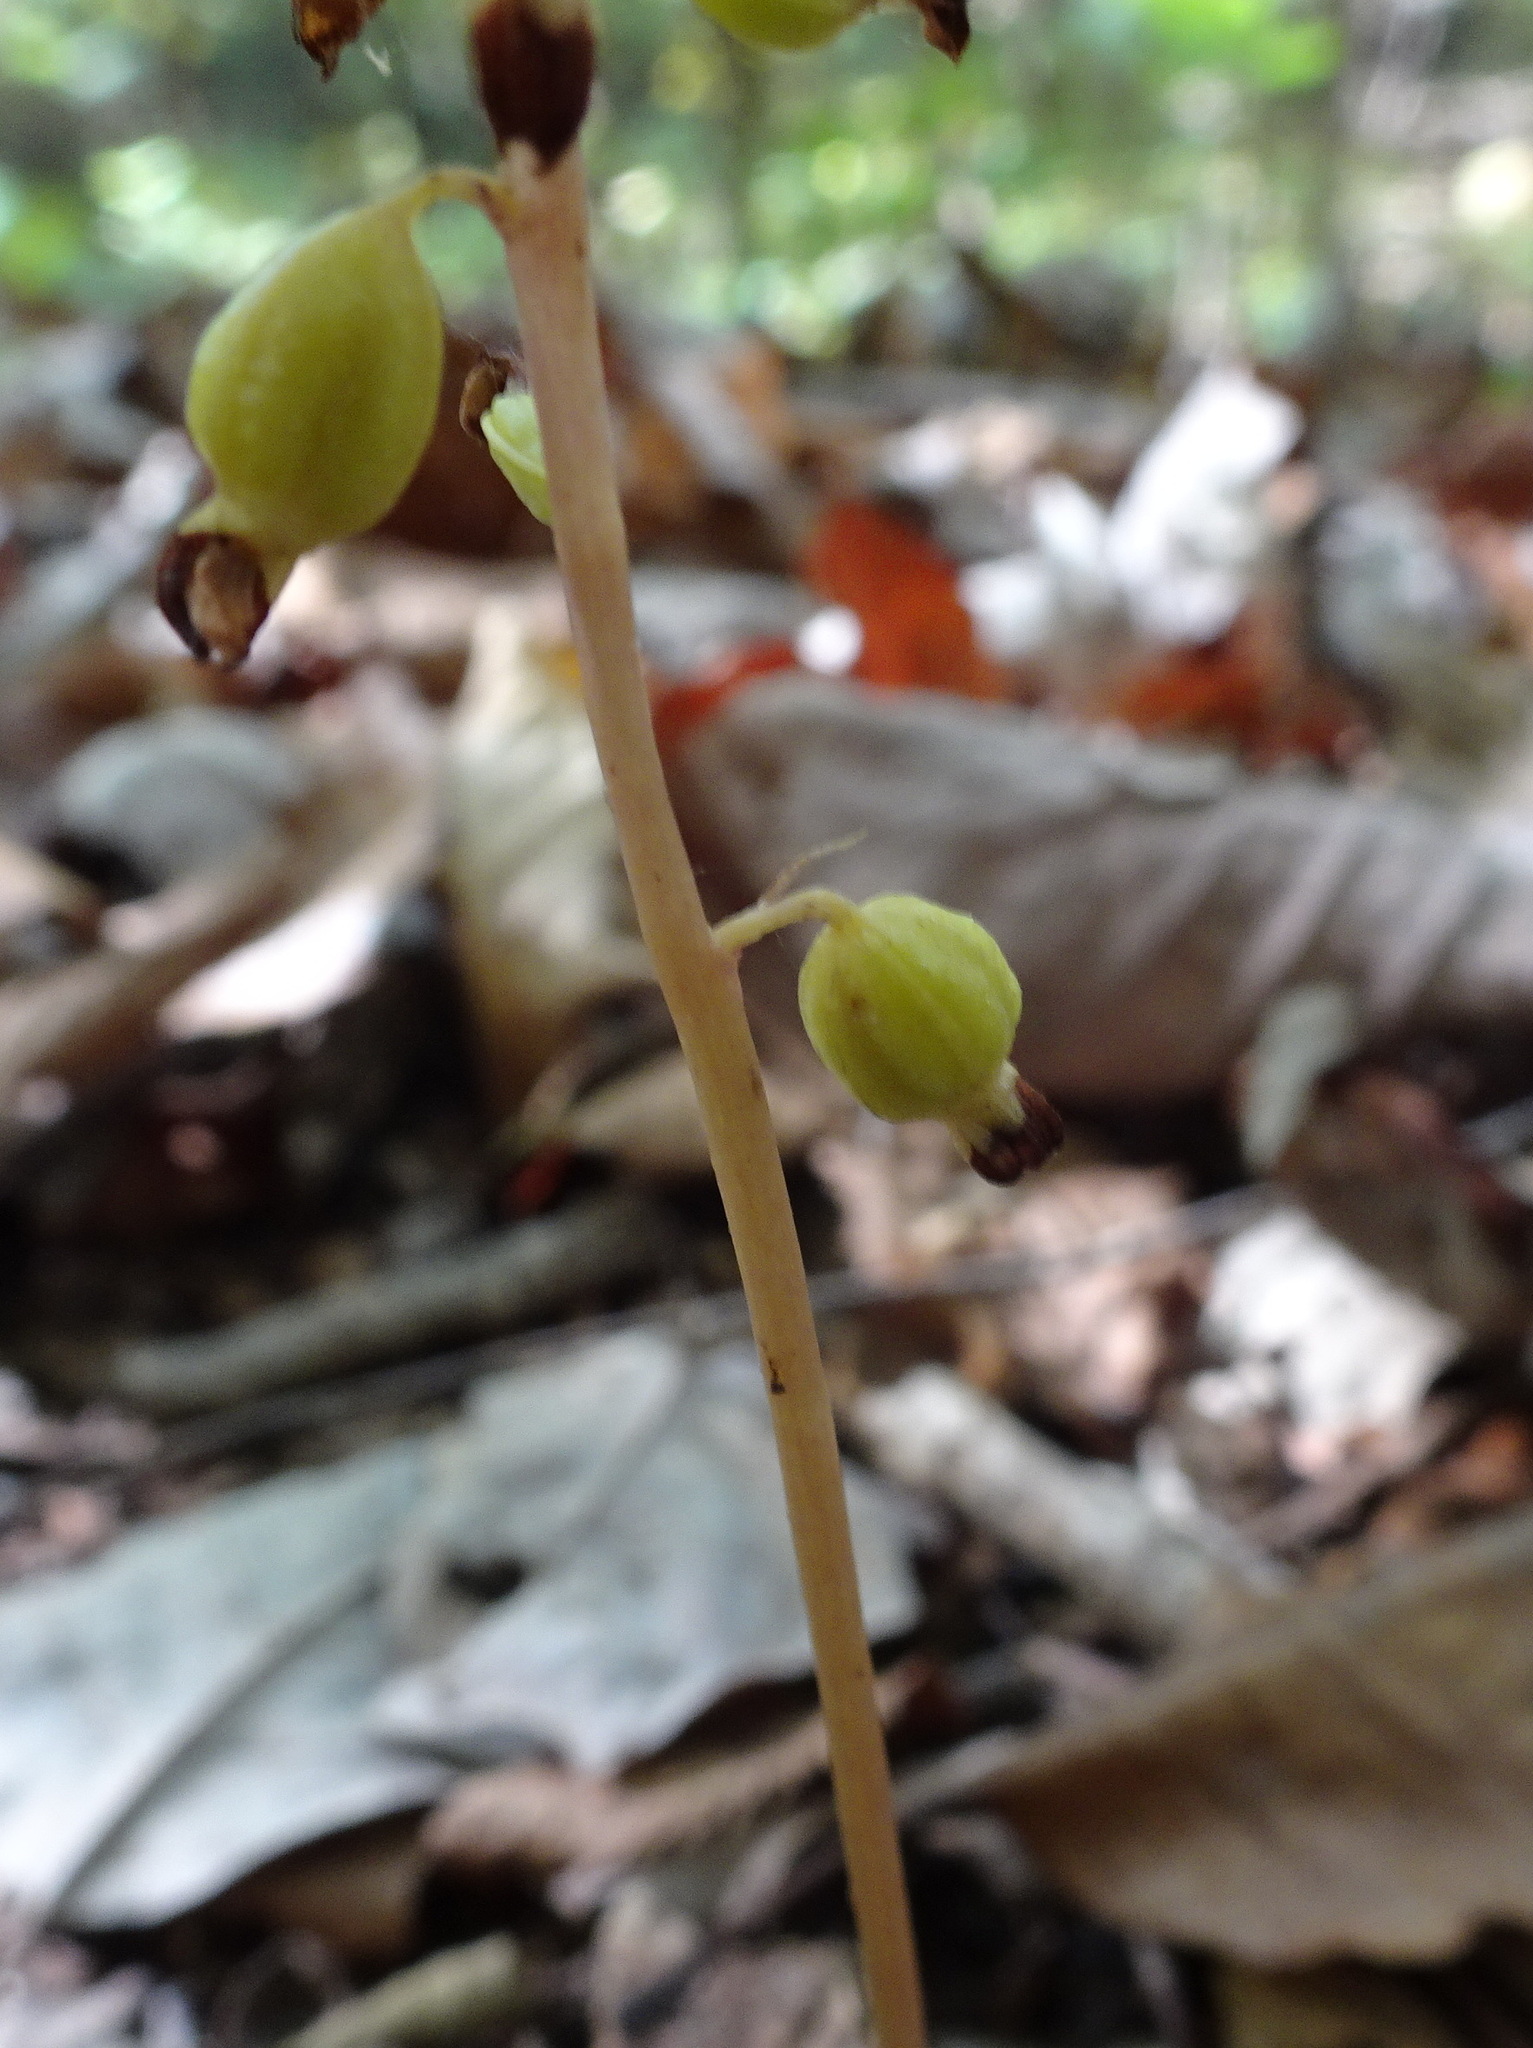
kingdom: Plantae
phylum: Tracheophyta
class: Liliopsida
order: Asparagales
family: Orchidaceae
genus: Corallorhiza
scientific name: Corallorhiza odontorhiza
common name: Autumn coralroot
